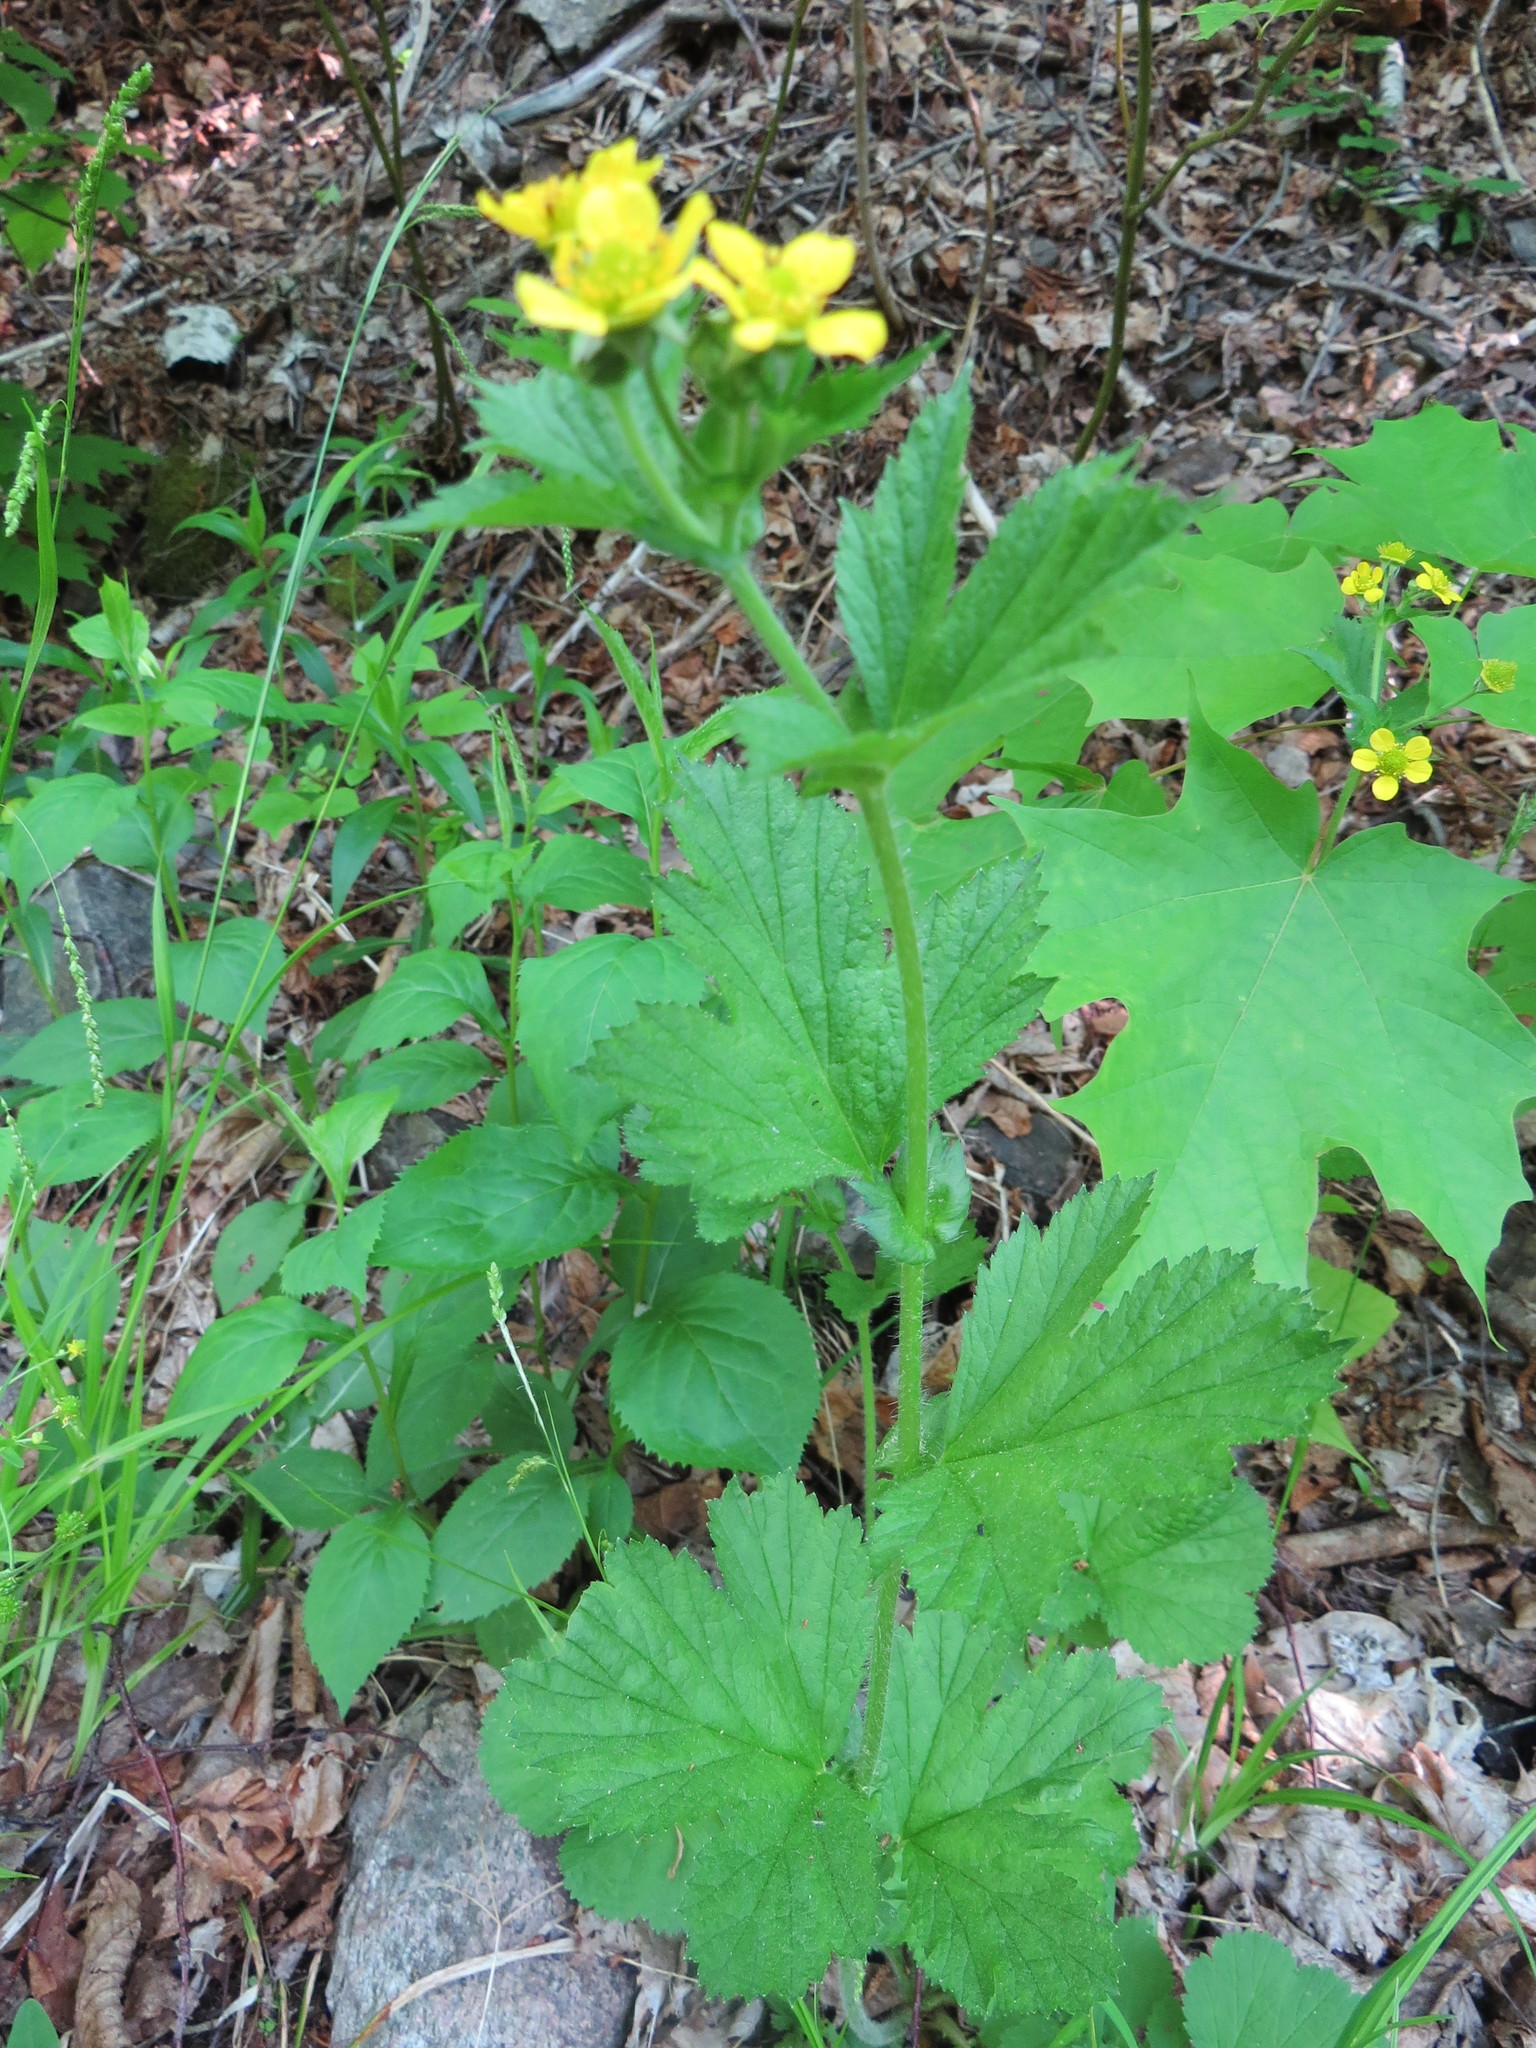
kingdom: Plantae
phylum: Tracheophyta
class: Magnoliopsida
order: Rosales
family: Rosaceae
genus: Geum
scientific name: Geum macrophyllum
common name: Large-leaved avens
